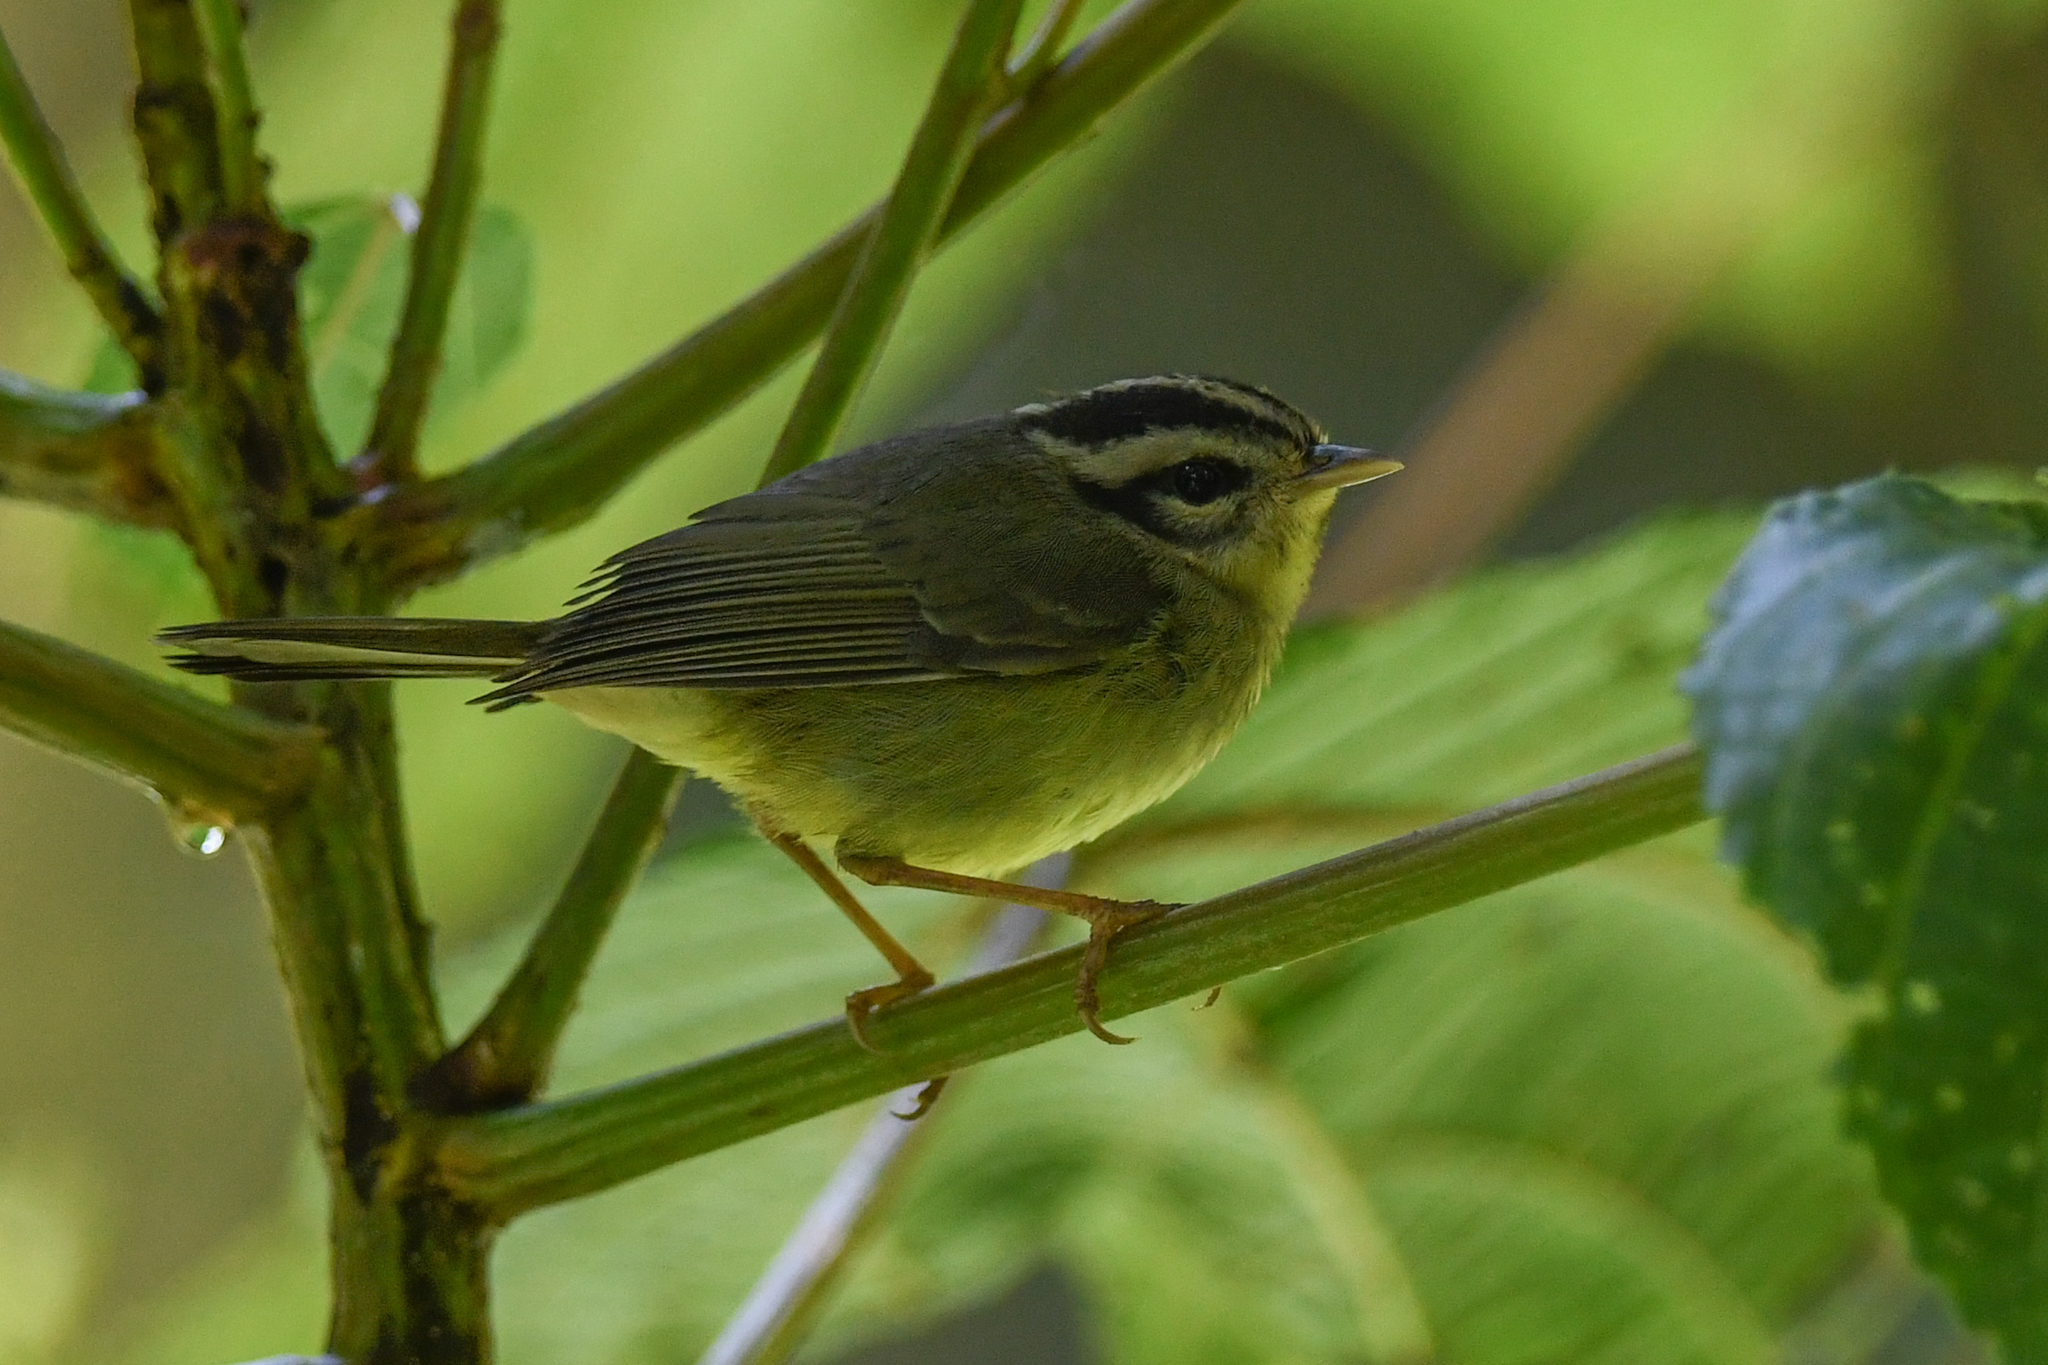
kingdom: Animalia
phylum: Chordata
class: Aves
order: Passeriformes
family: Parulidae
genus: Basileuterus
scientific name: Basileuterus melanotis
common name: Black-eared warbler
